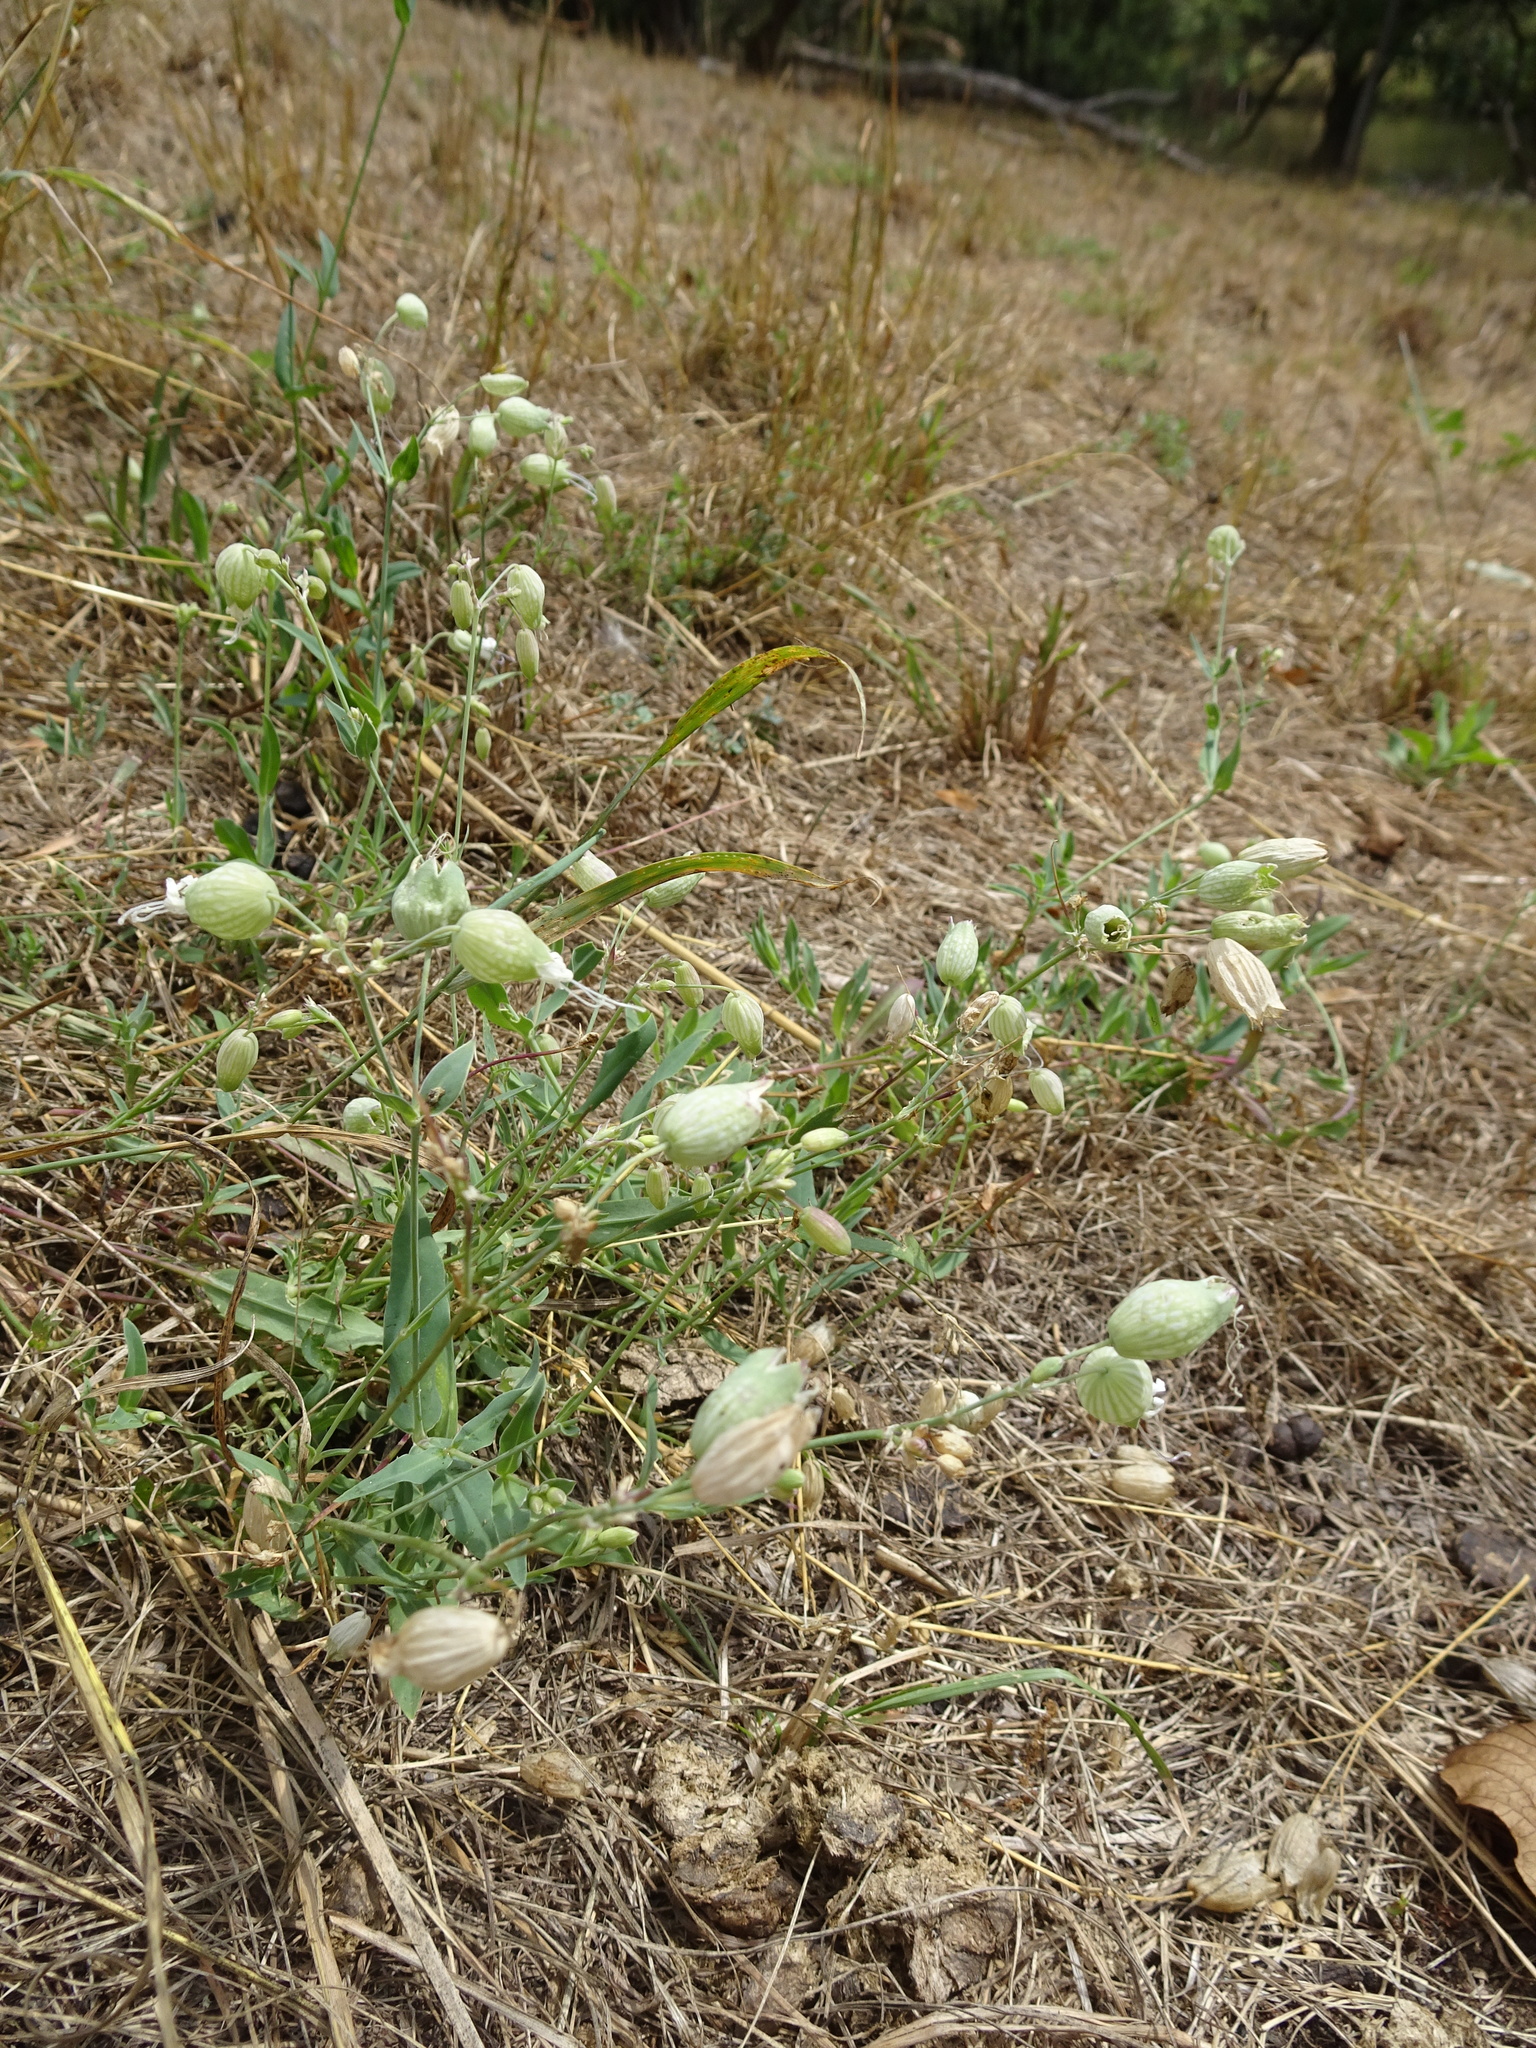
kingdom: Plantae
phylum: Tracheophyta
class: Magnoliopsida
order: Caryophyllales
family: Caryophyllaceae
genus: Silene
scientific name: Silene vulgaris
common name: Bladder campion
